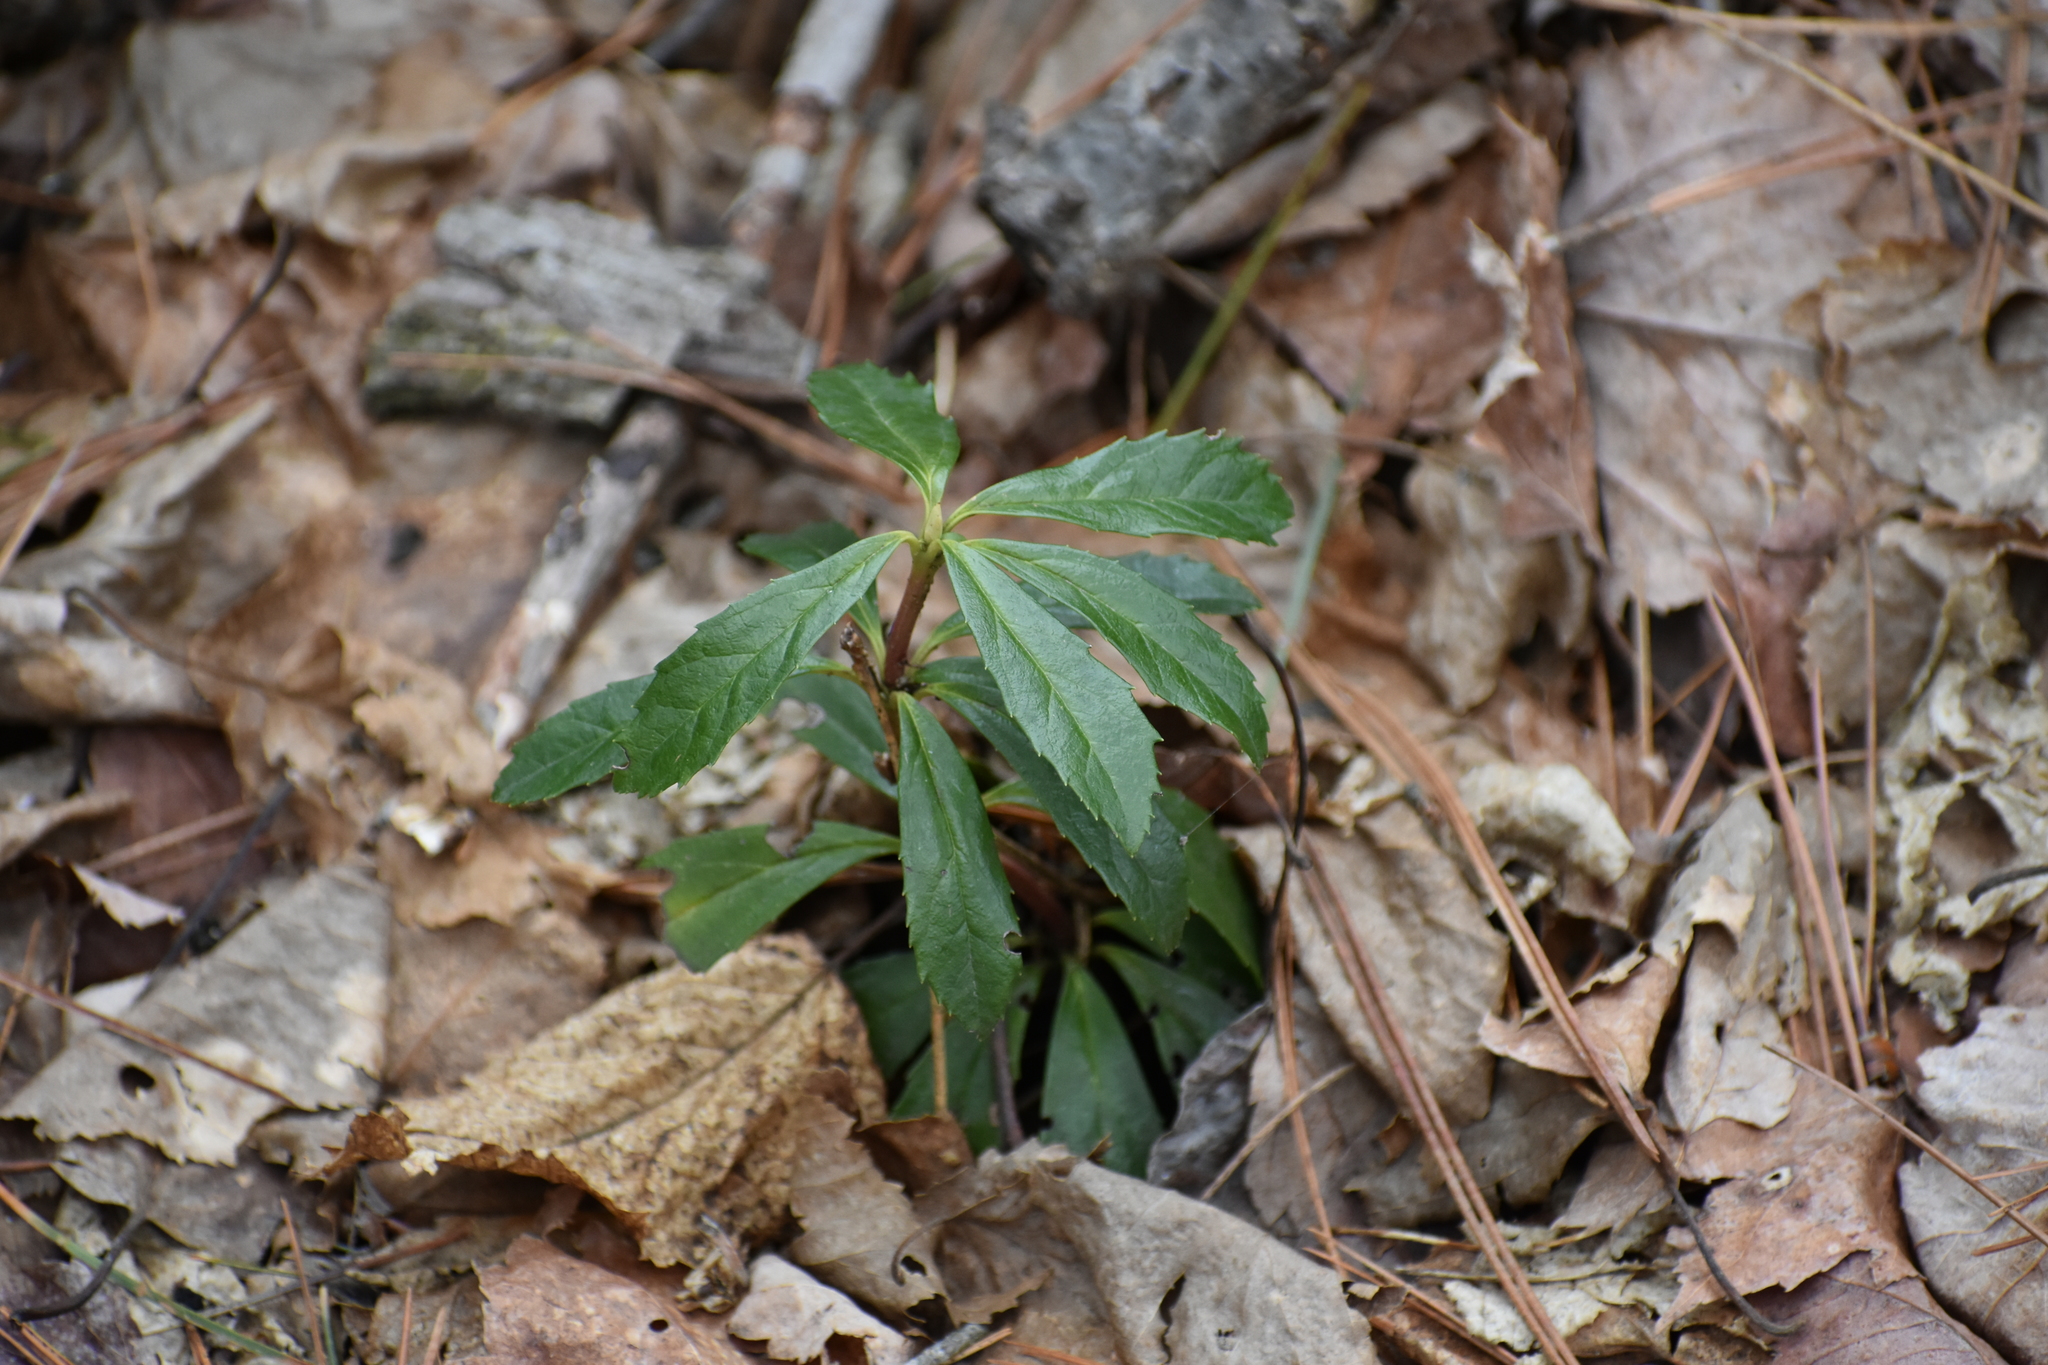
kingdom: Plantae
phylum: Tracheophyta
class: Magnoliopsida
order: Ericales
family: Ericaceae
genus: Chimaphila
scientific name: Chimaphila umbellata
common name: Pipsissewa
